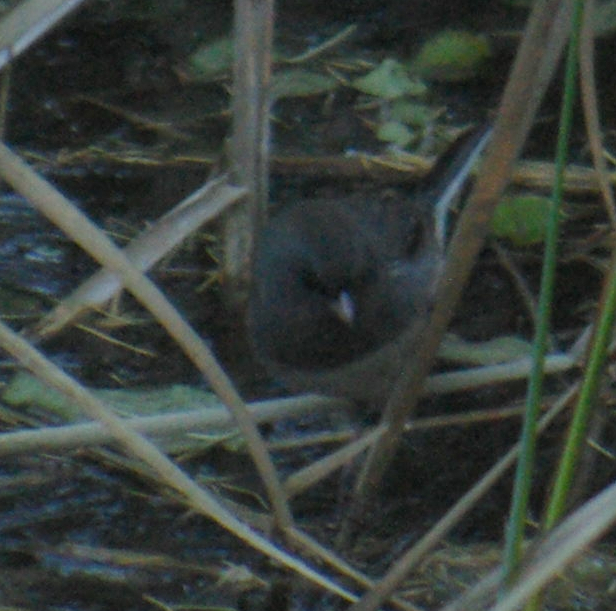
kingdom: Animalia
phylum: Chordata
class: Aves
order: Passeriformes
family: Passerellidae
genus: Junco
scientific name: Junco hyemalis
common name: Dark-eyed junco
